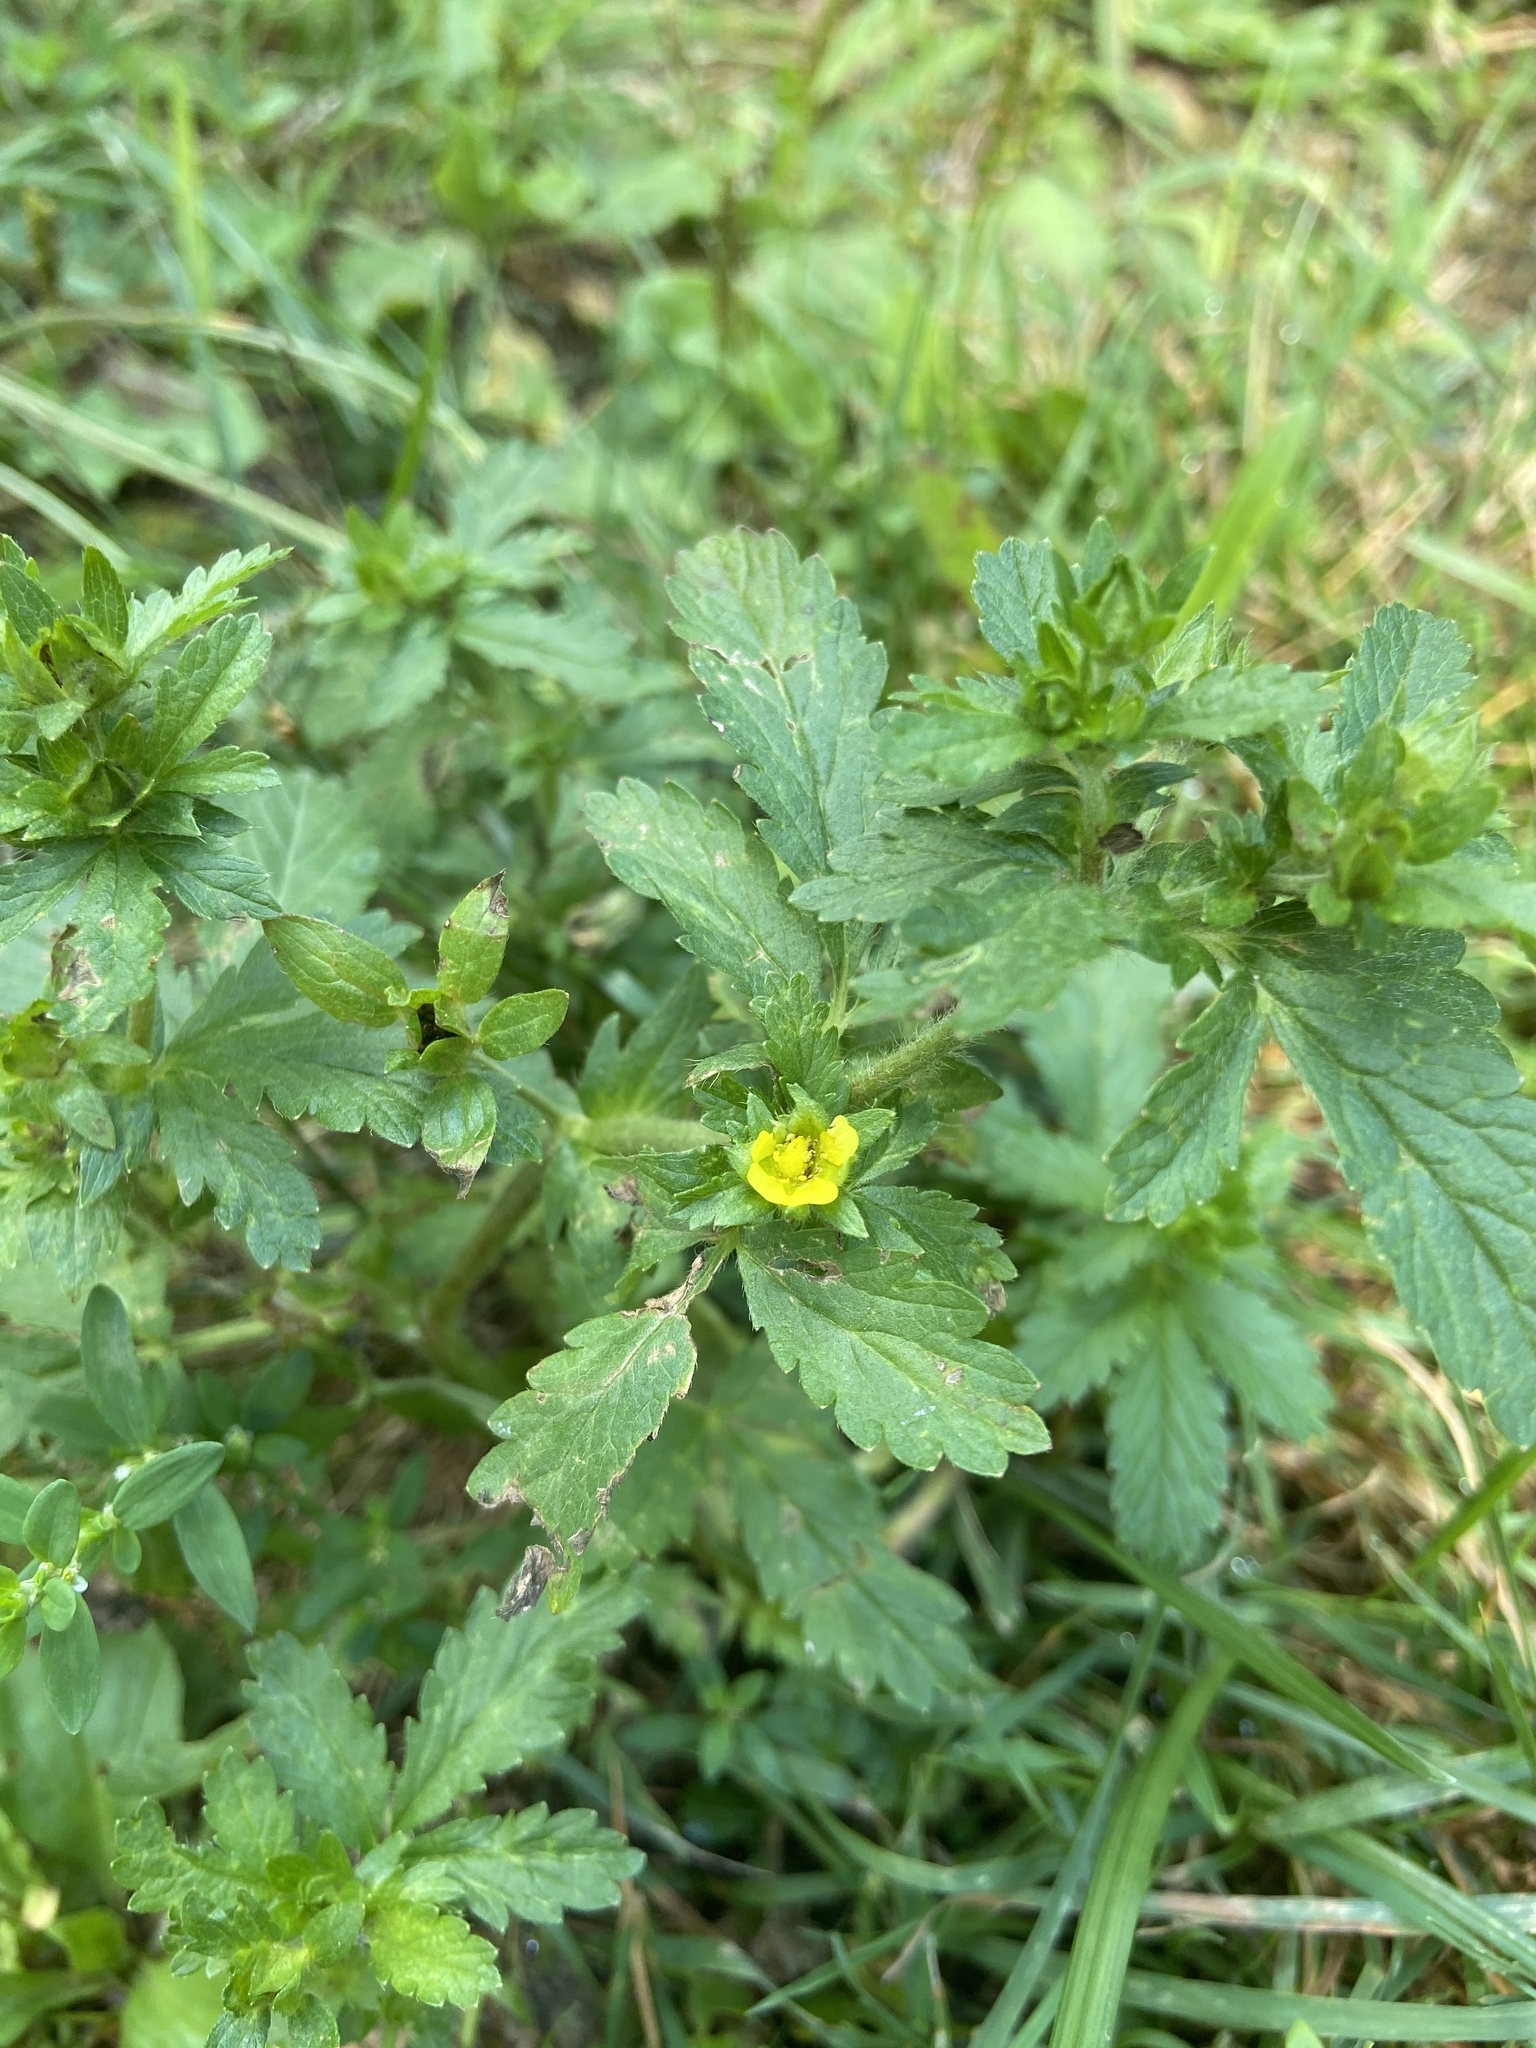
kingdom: Plantae
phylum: Tracheophyta
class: Magnoliopsida
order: Rosales
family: Rosaceae
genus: Potentilla
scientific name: Potentilla norvegica
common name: Ternate-leaved cinquefoil
